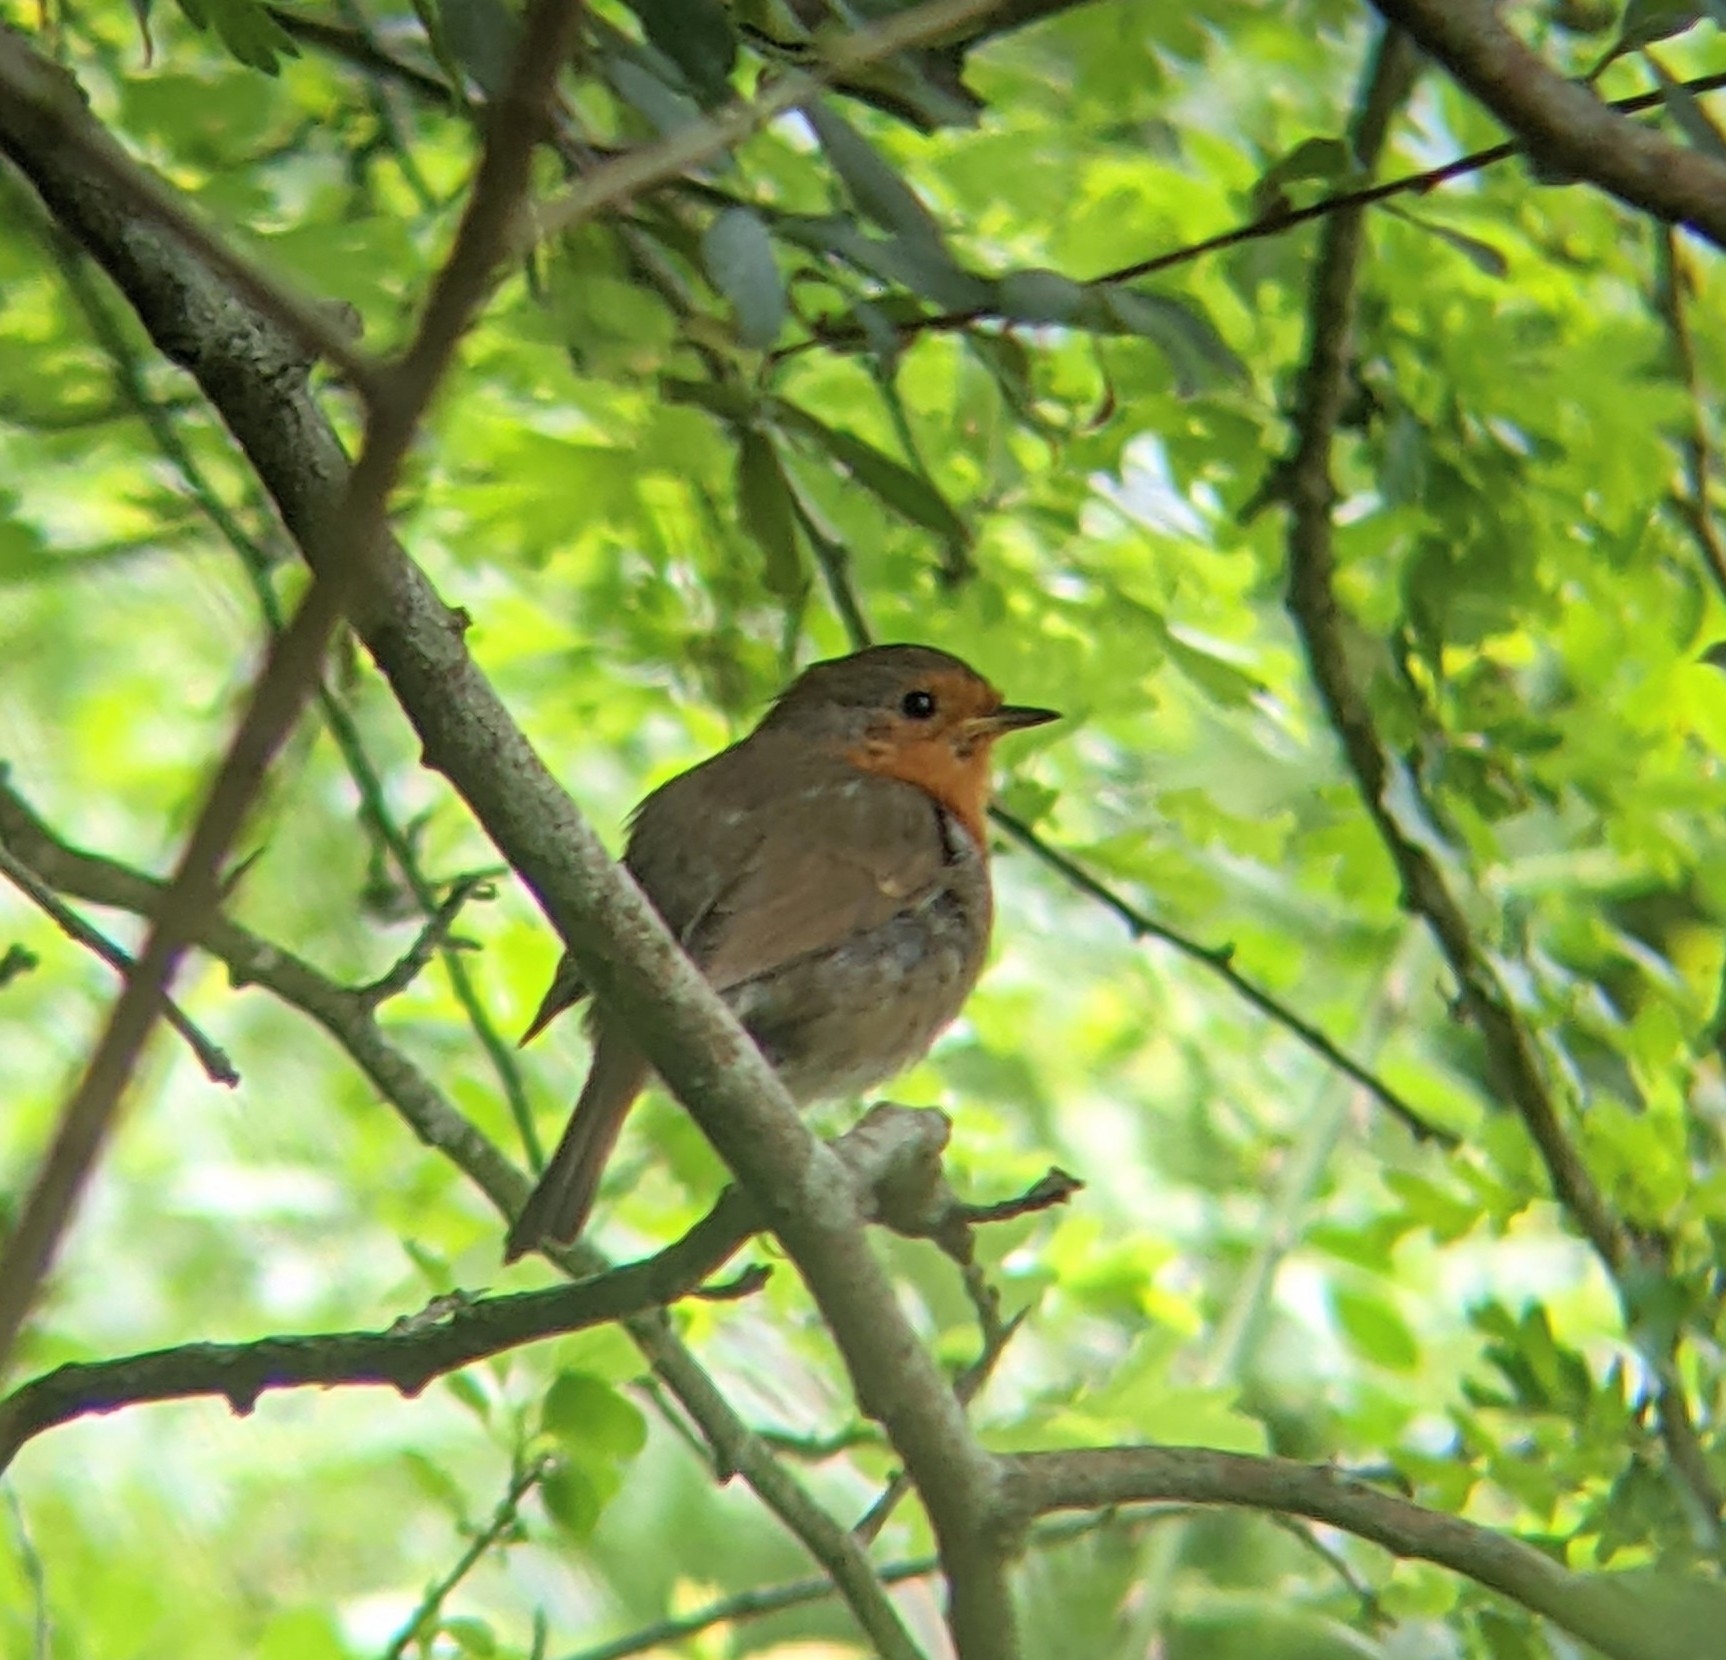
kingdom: Animalia
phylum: Chordata
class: Aves
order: Passeriformes
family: Muscicapidae
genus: Erithacus
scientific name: Erithacus rubecula
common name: European robin
